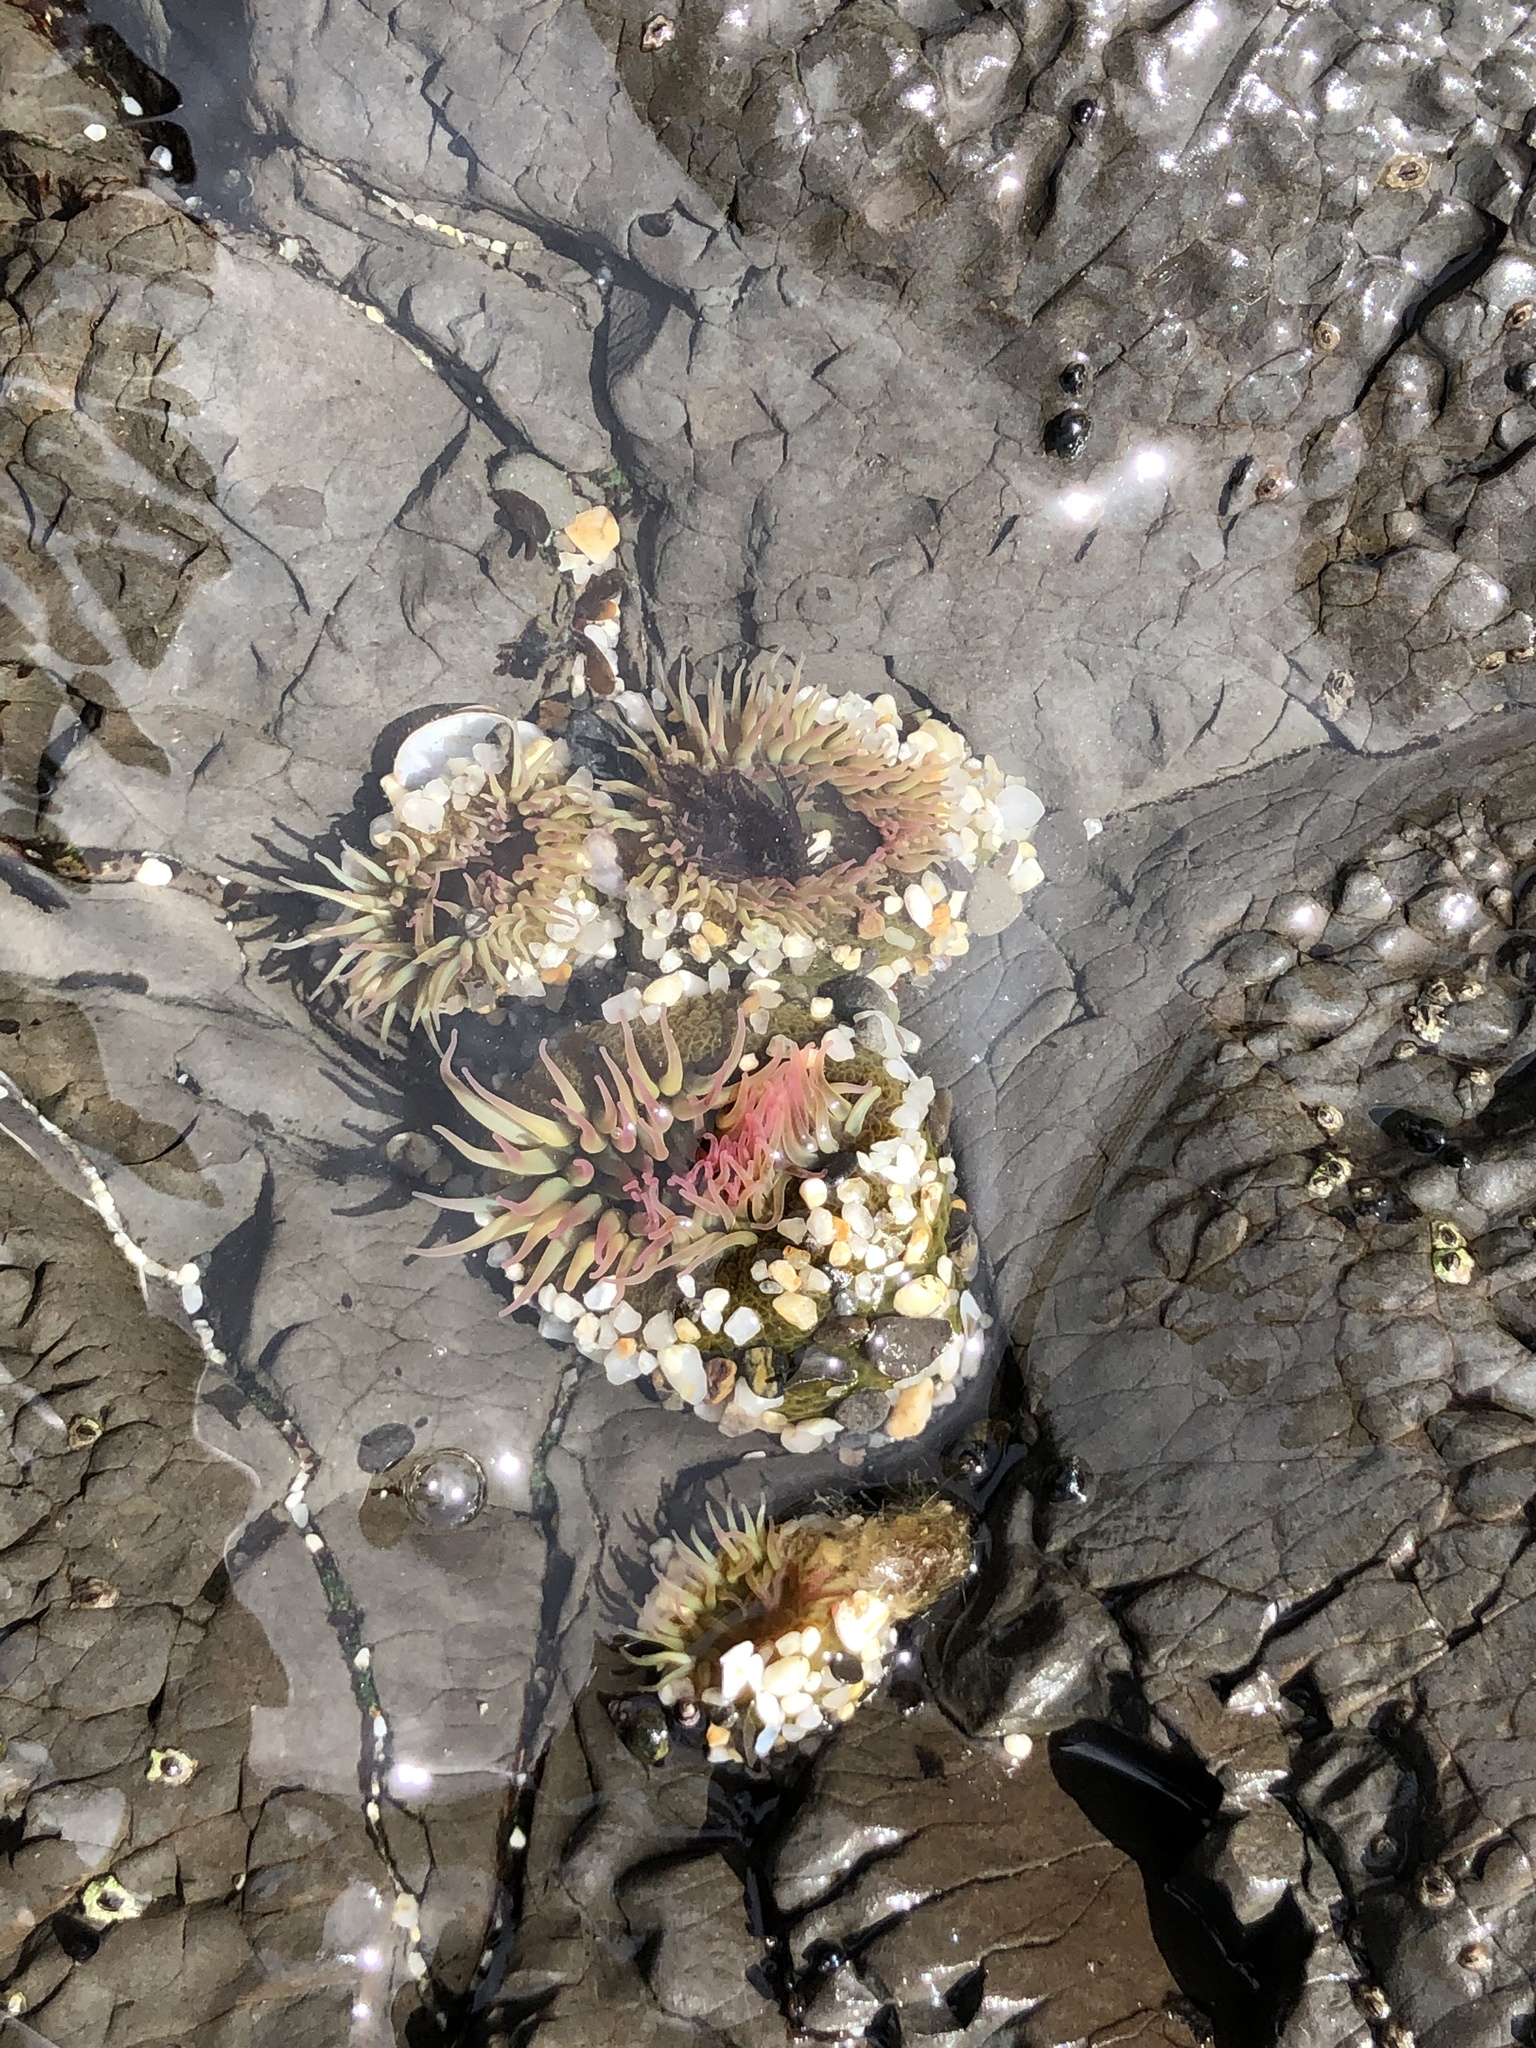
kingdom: Animalia
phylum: Cnidaria
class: Anthozoa
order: Actiniaria
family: Actiniidae
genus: Anthopleura
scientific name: Anthopleura elegantissima
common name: Clonal anemone
